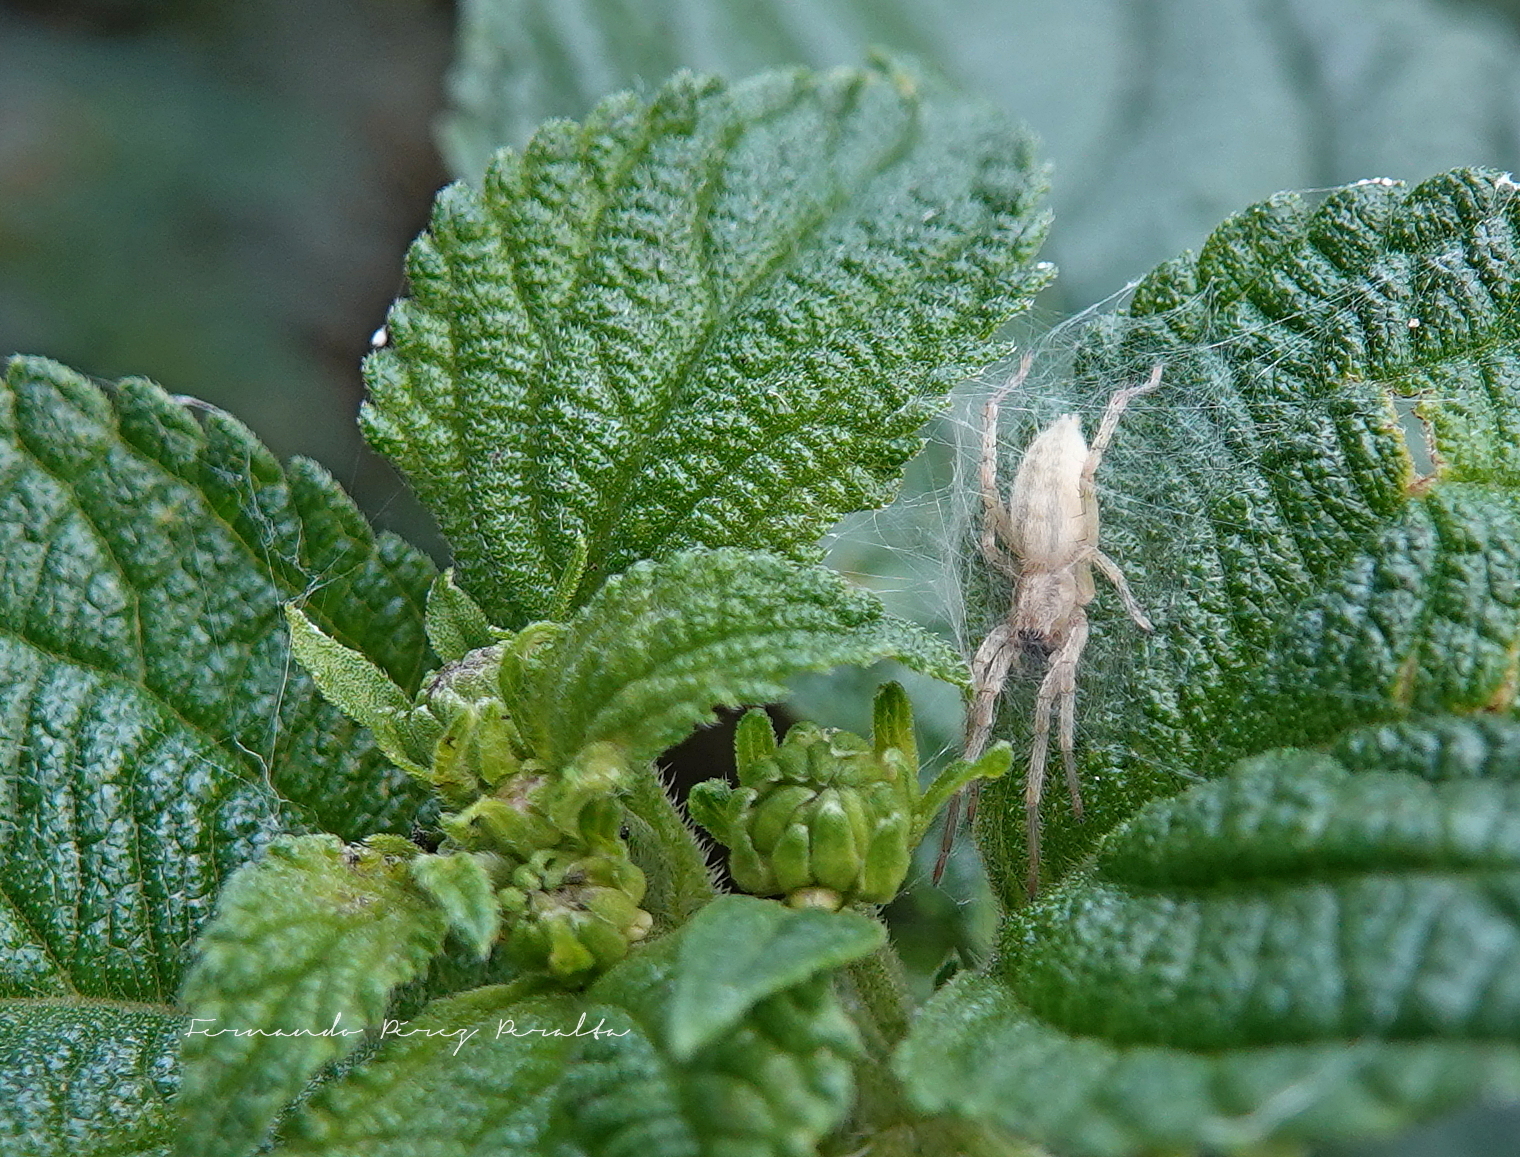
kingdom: Animalia
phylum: Arthropoda
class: Arachnida
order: Araneae
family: Anyphaenidae
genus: Hibana
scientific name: Hibana gracilis
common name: Garden ghost spider
